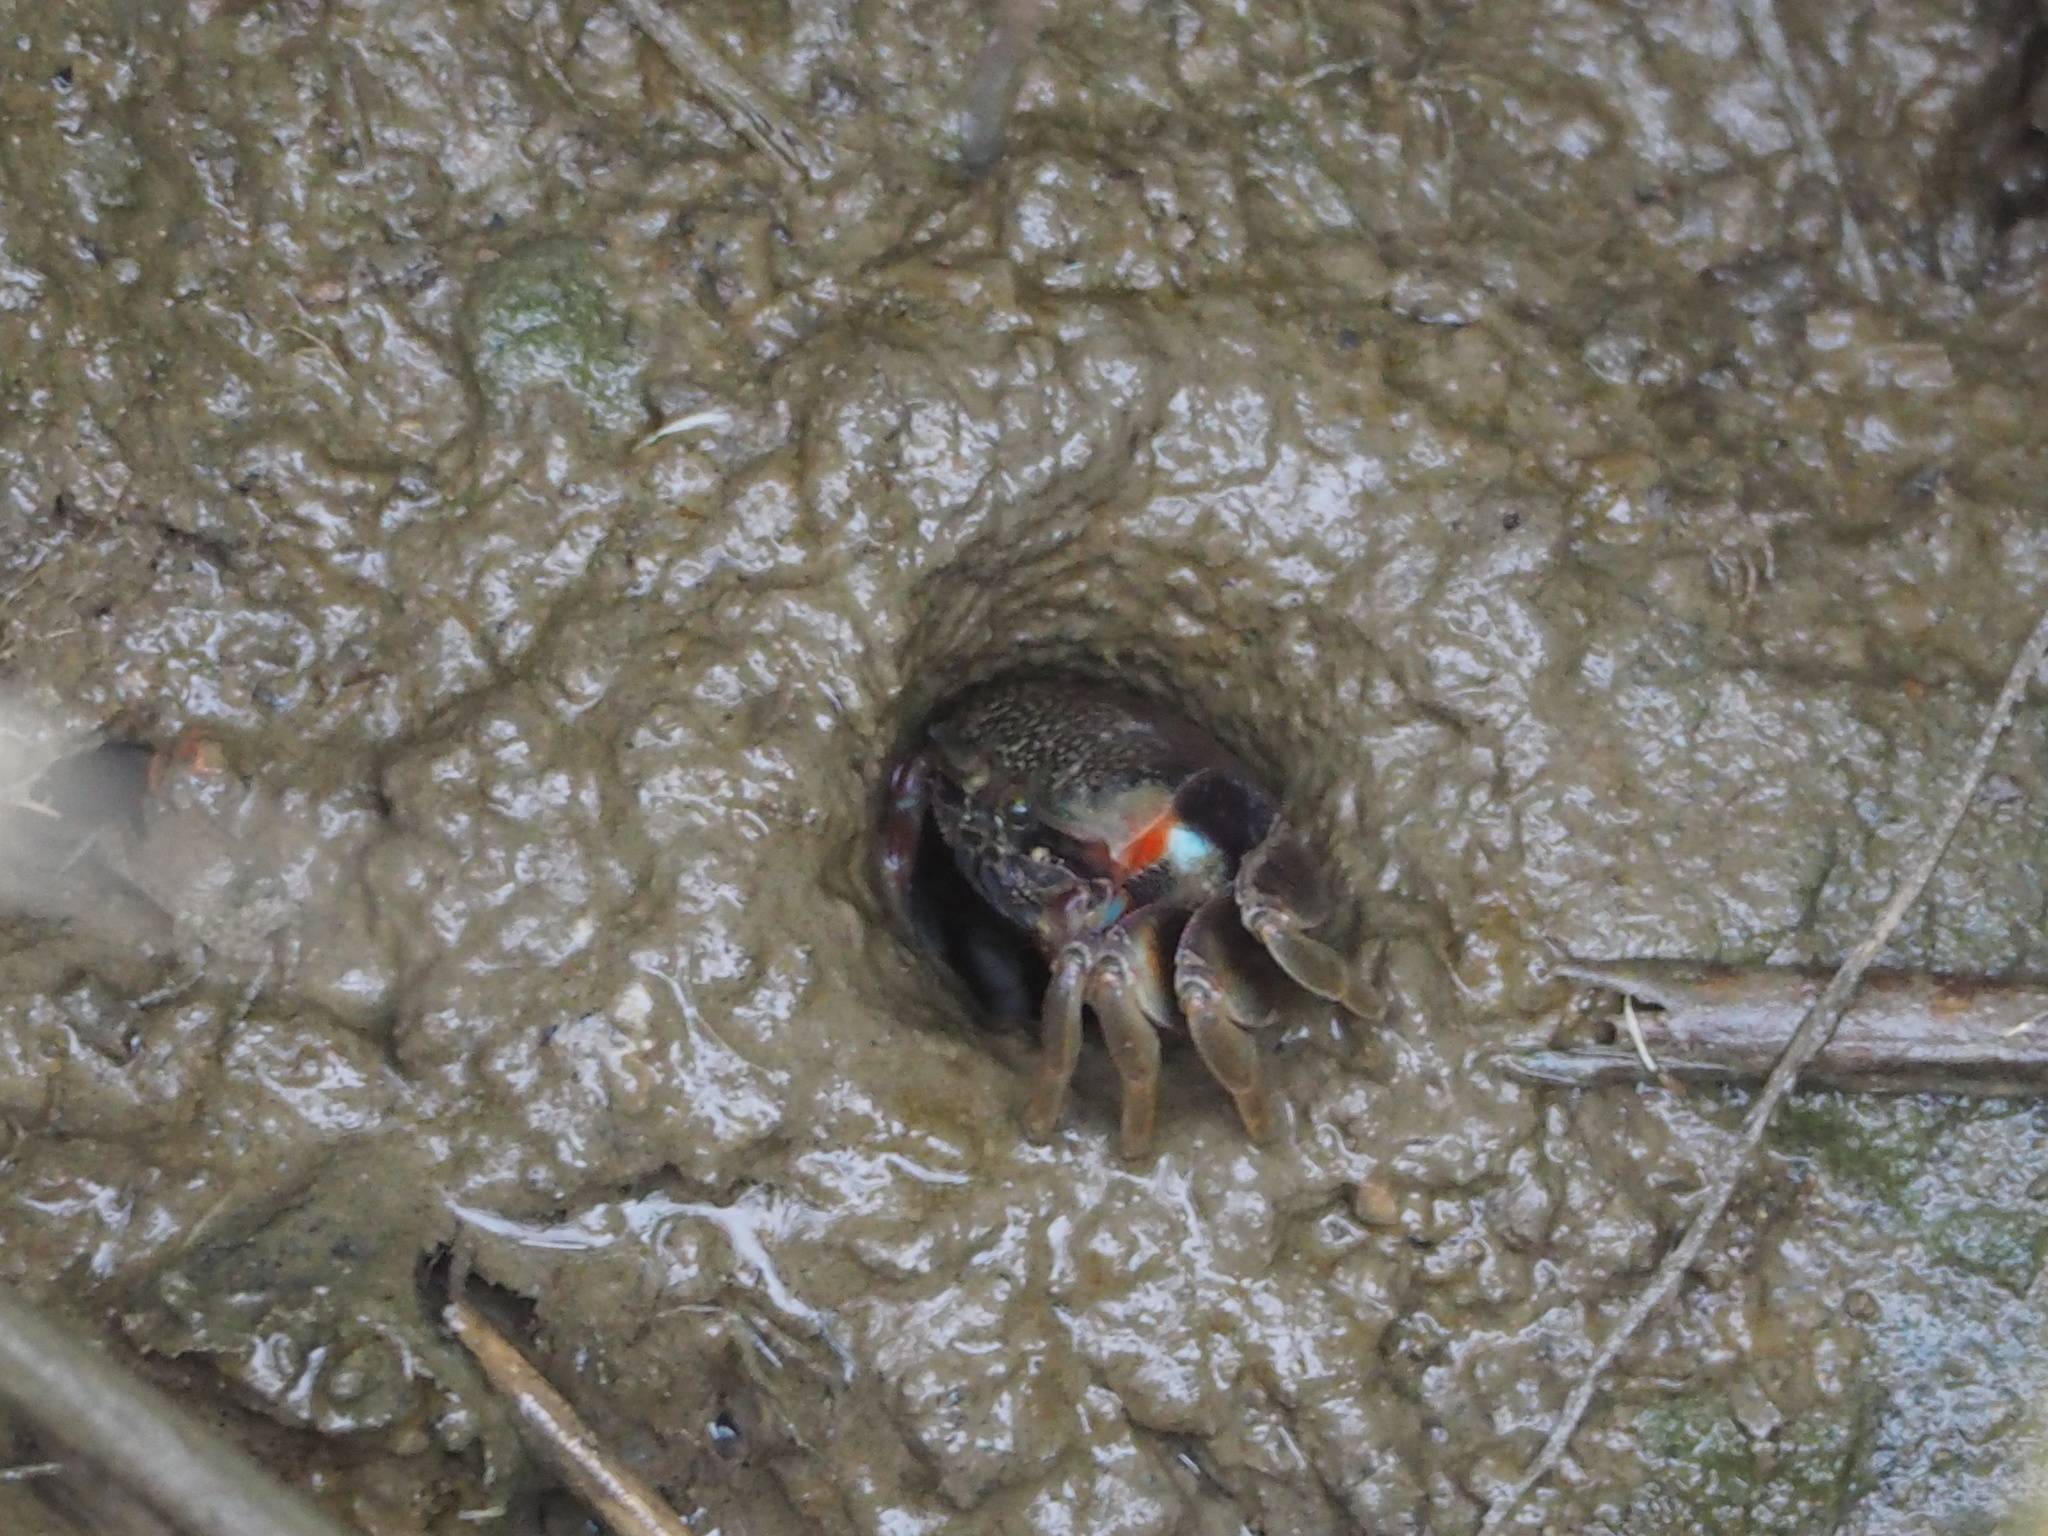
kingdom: Animalia
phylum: Arthropoda
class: Malacostraca
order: Decapoda
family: Ocypodidae
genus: Tubuca
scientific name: Tubuca arcuata
